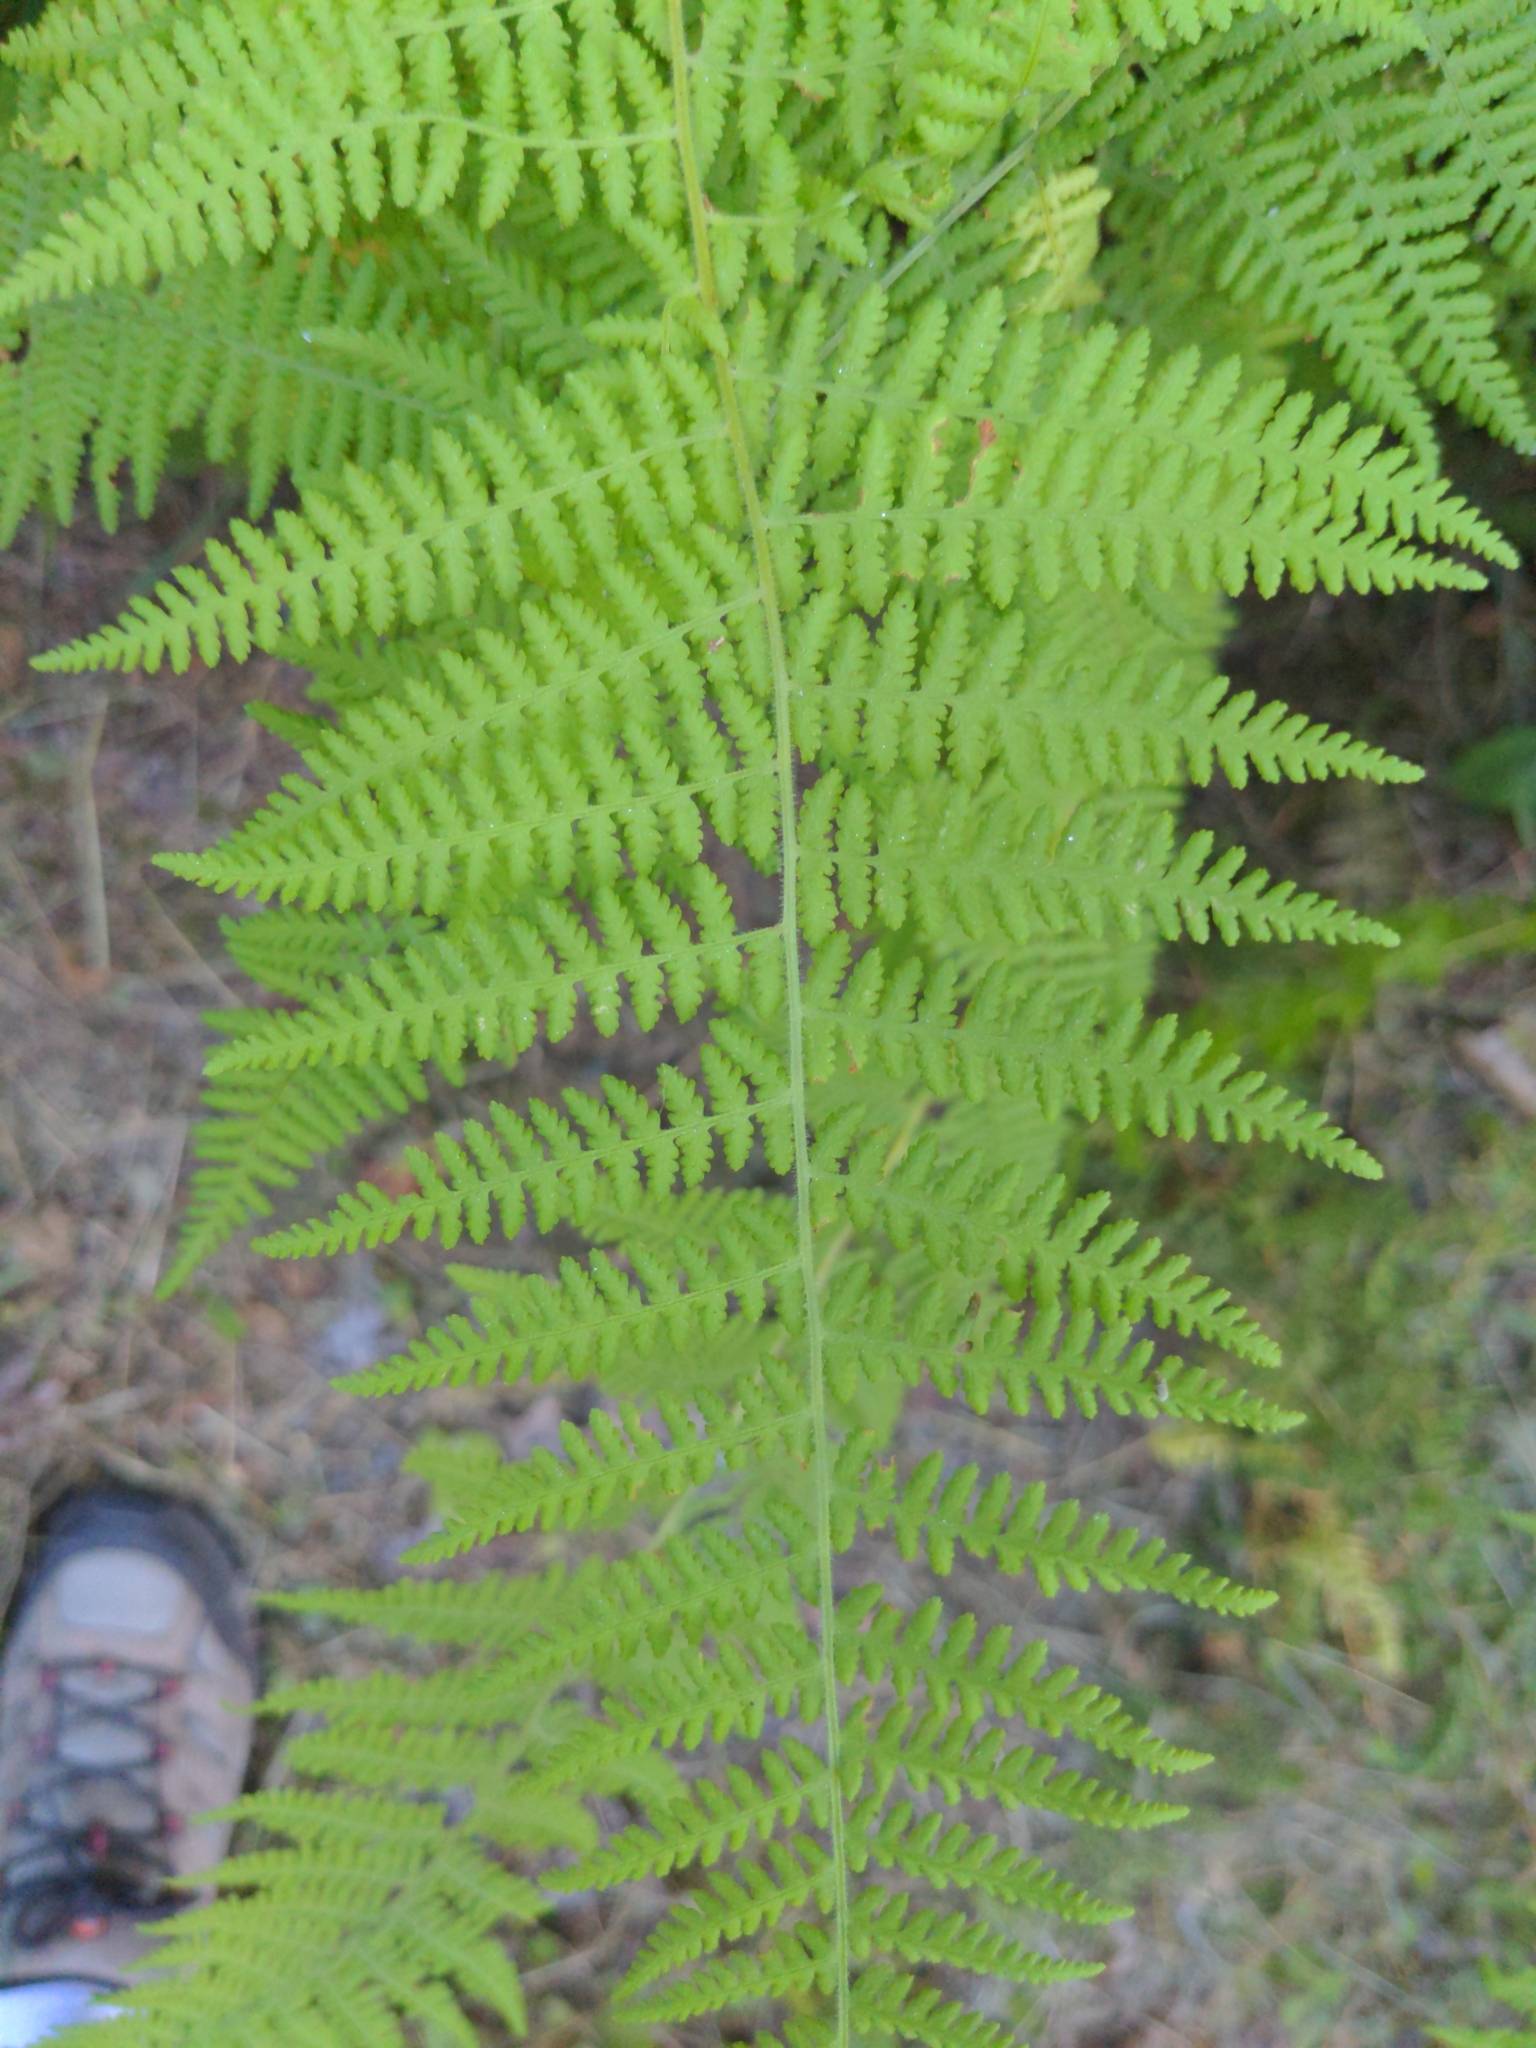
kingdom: Plantae
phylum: Tracheophyta
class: Polypodiopsida
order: Polypodiales
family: Dennstaedtiaceae
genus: Sitobolium
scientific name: Sitobolium punctilobum
